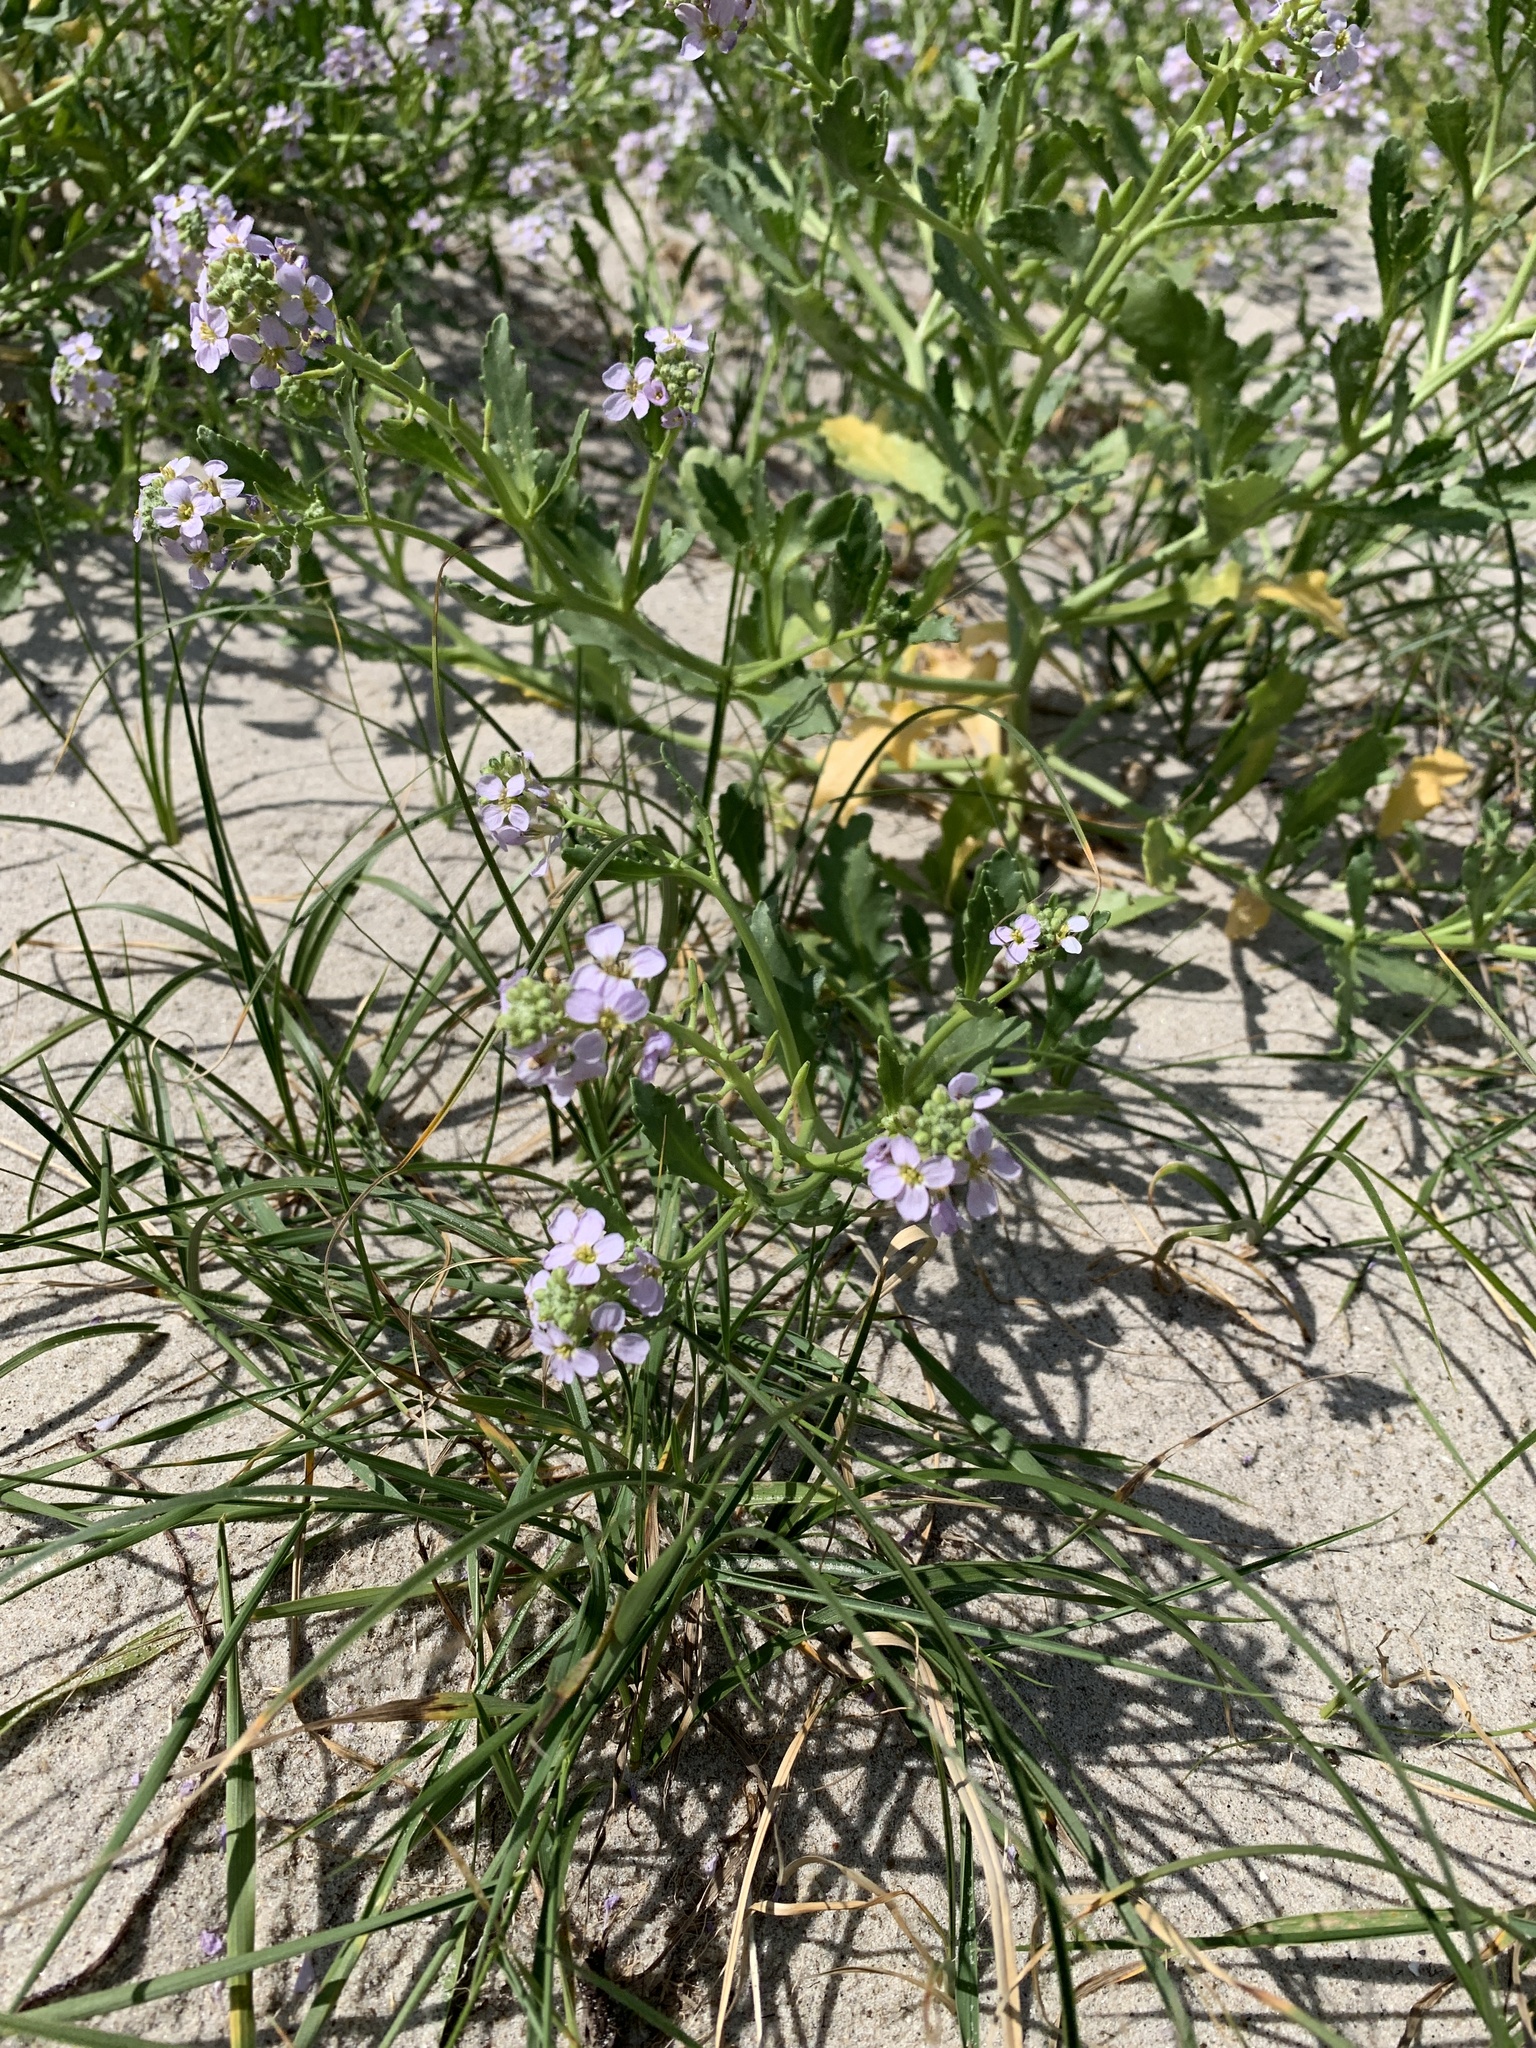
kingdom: Plantae
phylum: Tracheophyta
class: Magnoliopsida
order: Brassicales
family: Brassicaceae
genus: Cakile
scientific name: Cakile maritima
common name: Sea rocket
